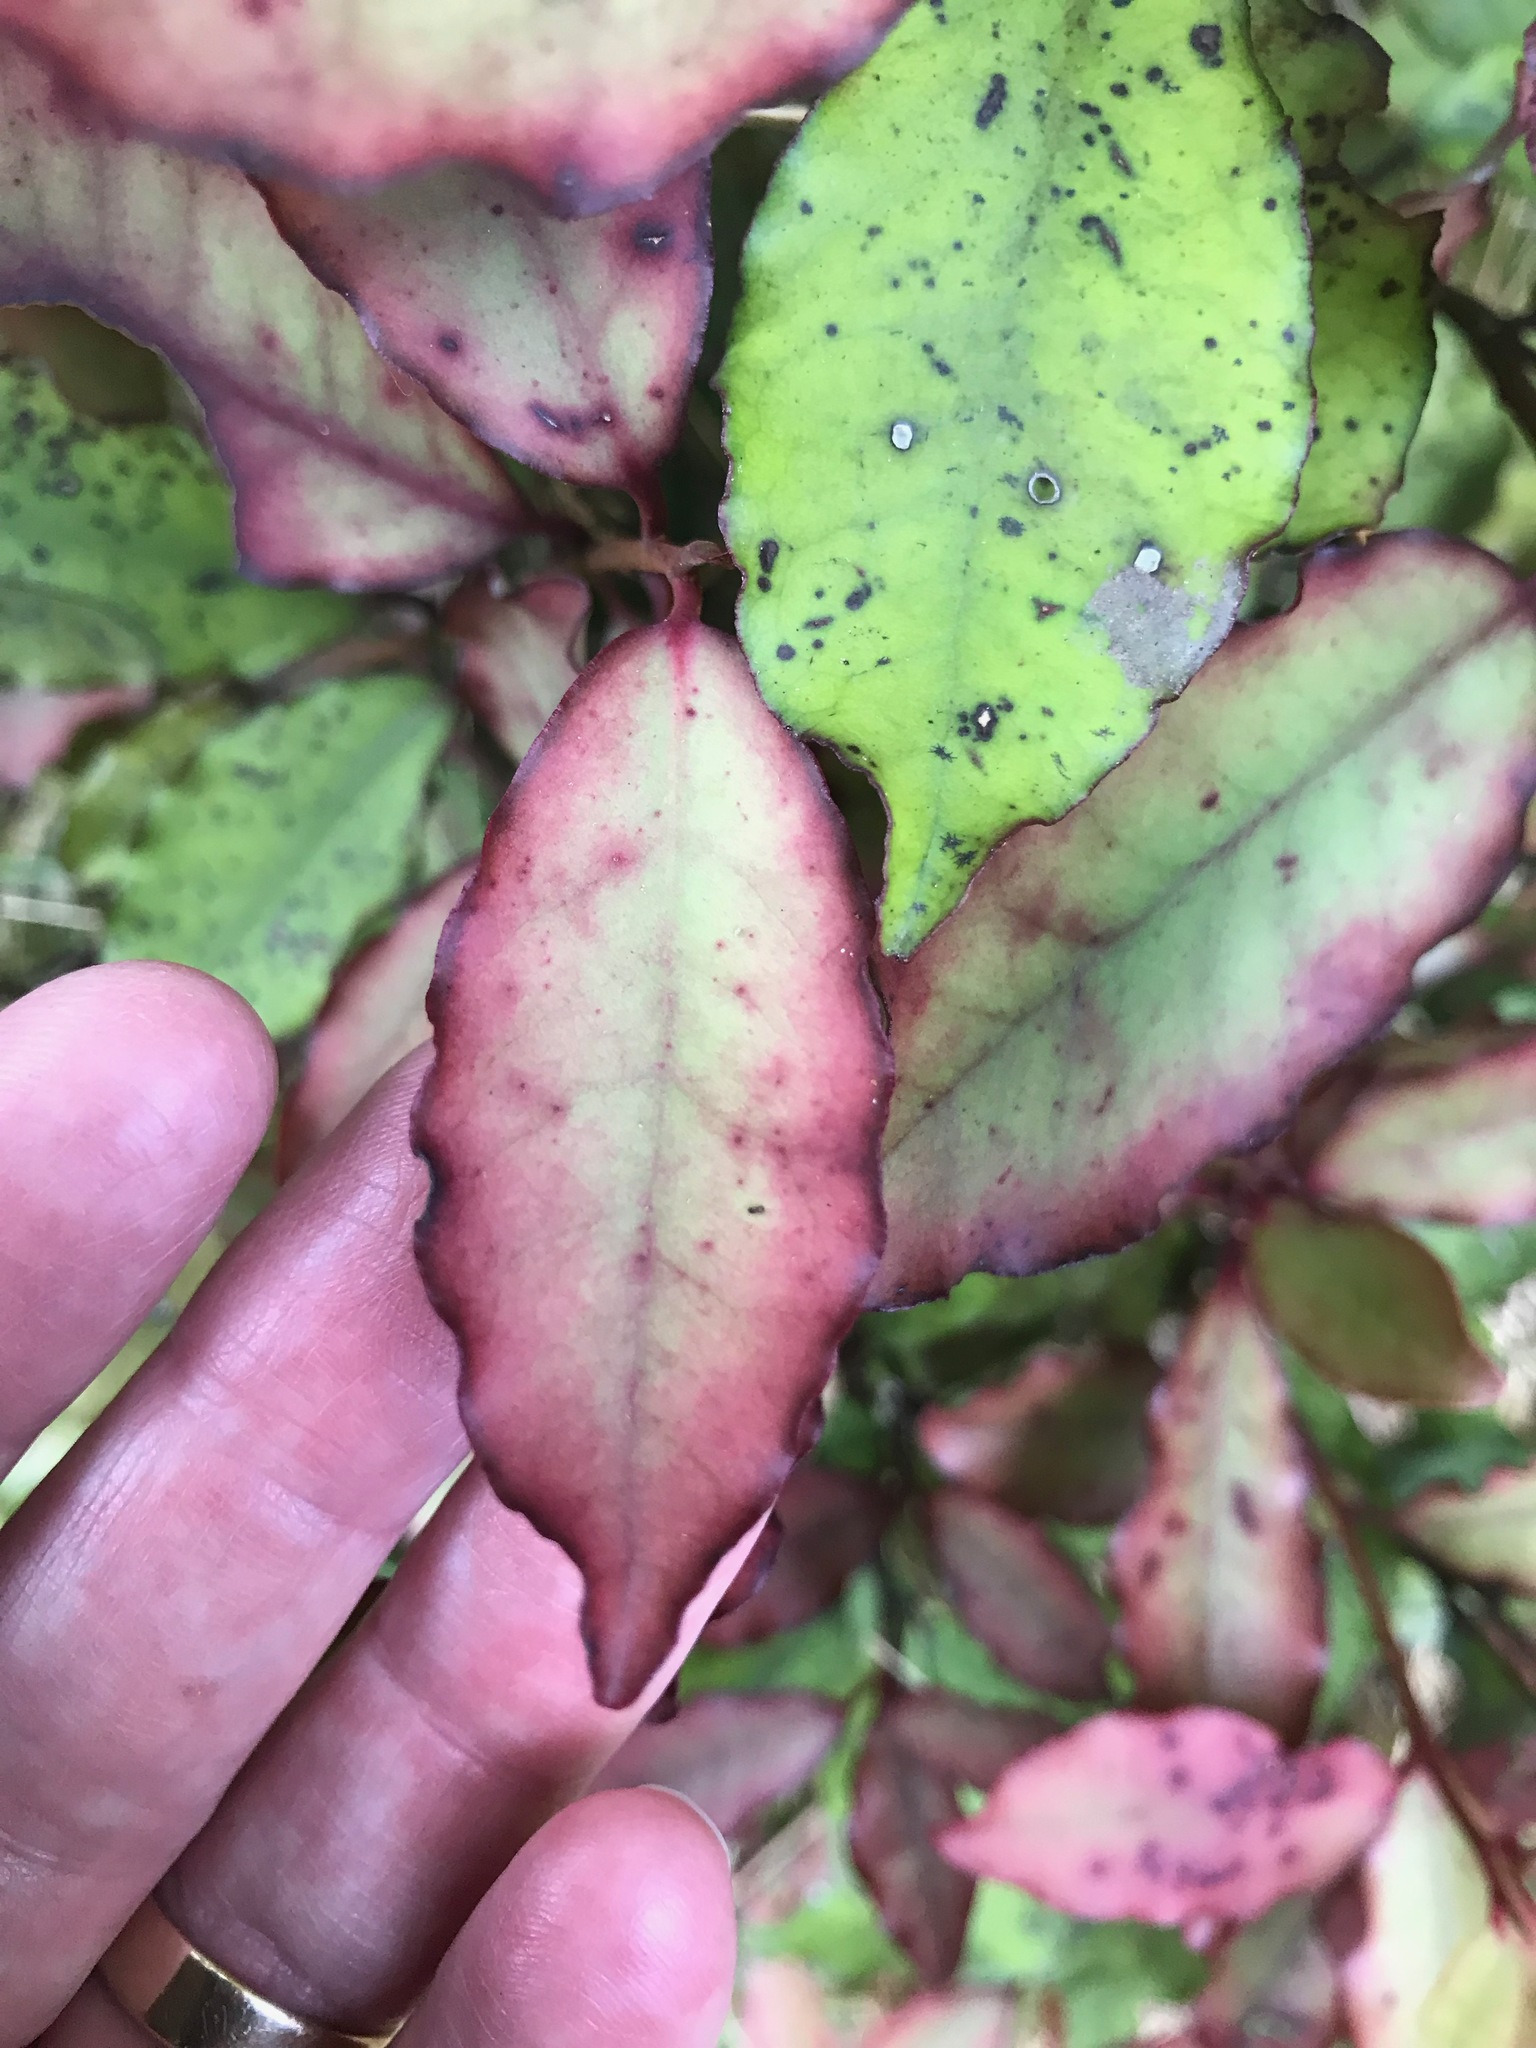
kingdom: Plantae
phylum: Tracheophyta
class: Magnoliopsida
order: Canellales
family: Winteraceae
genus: Pseudowintera
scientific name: Pseudowintera colorata
